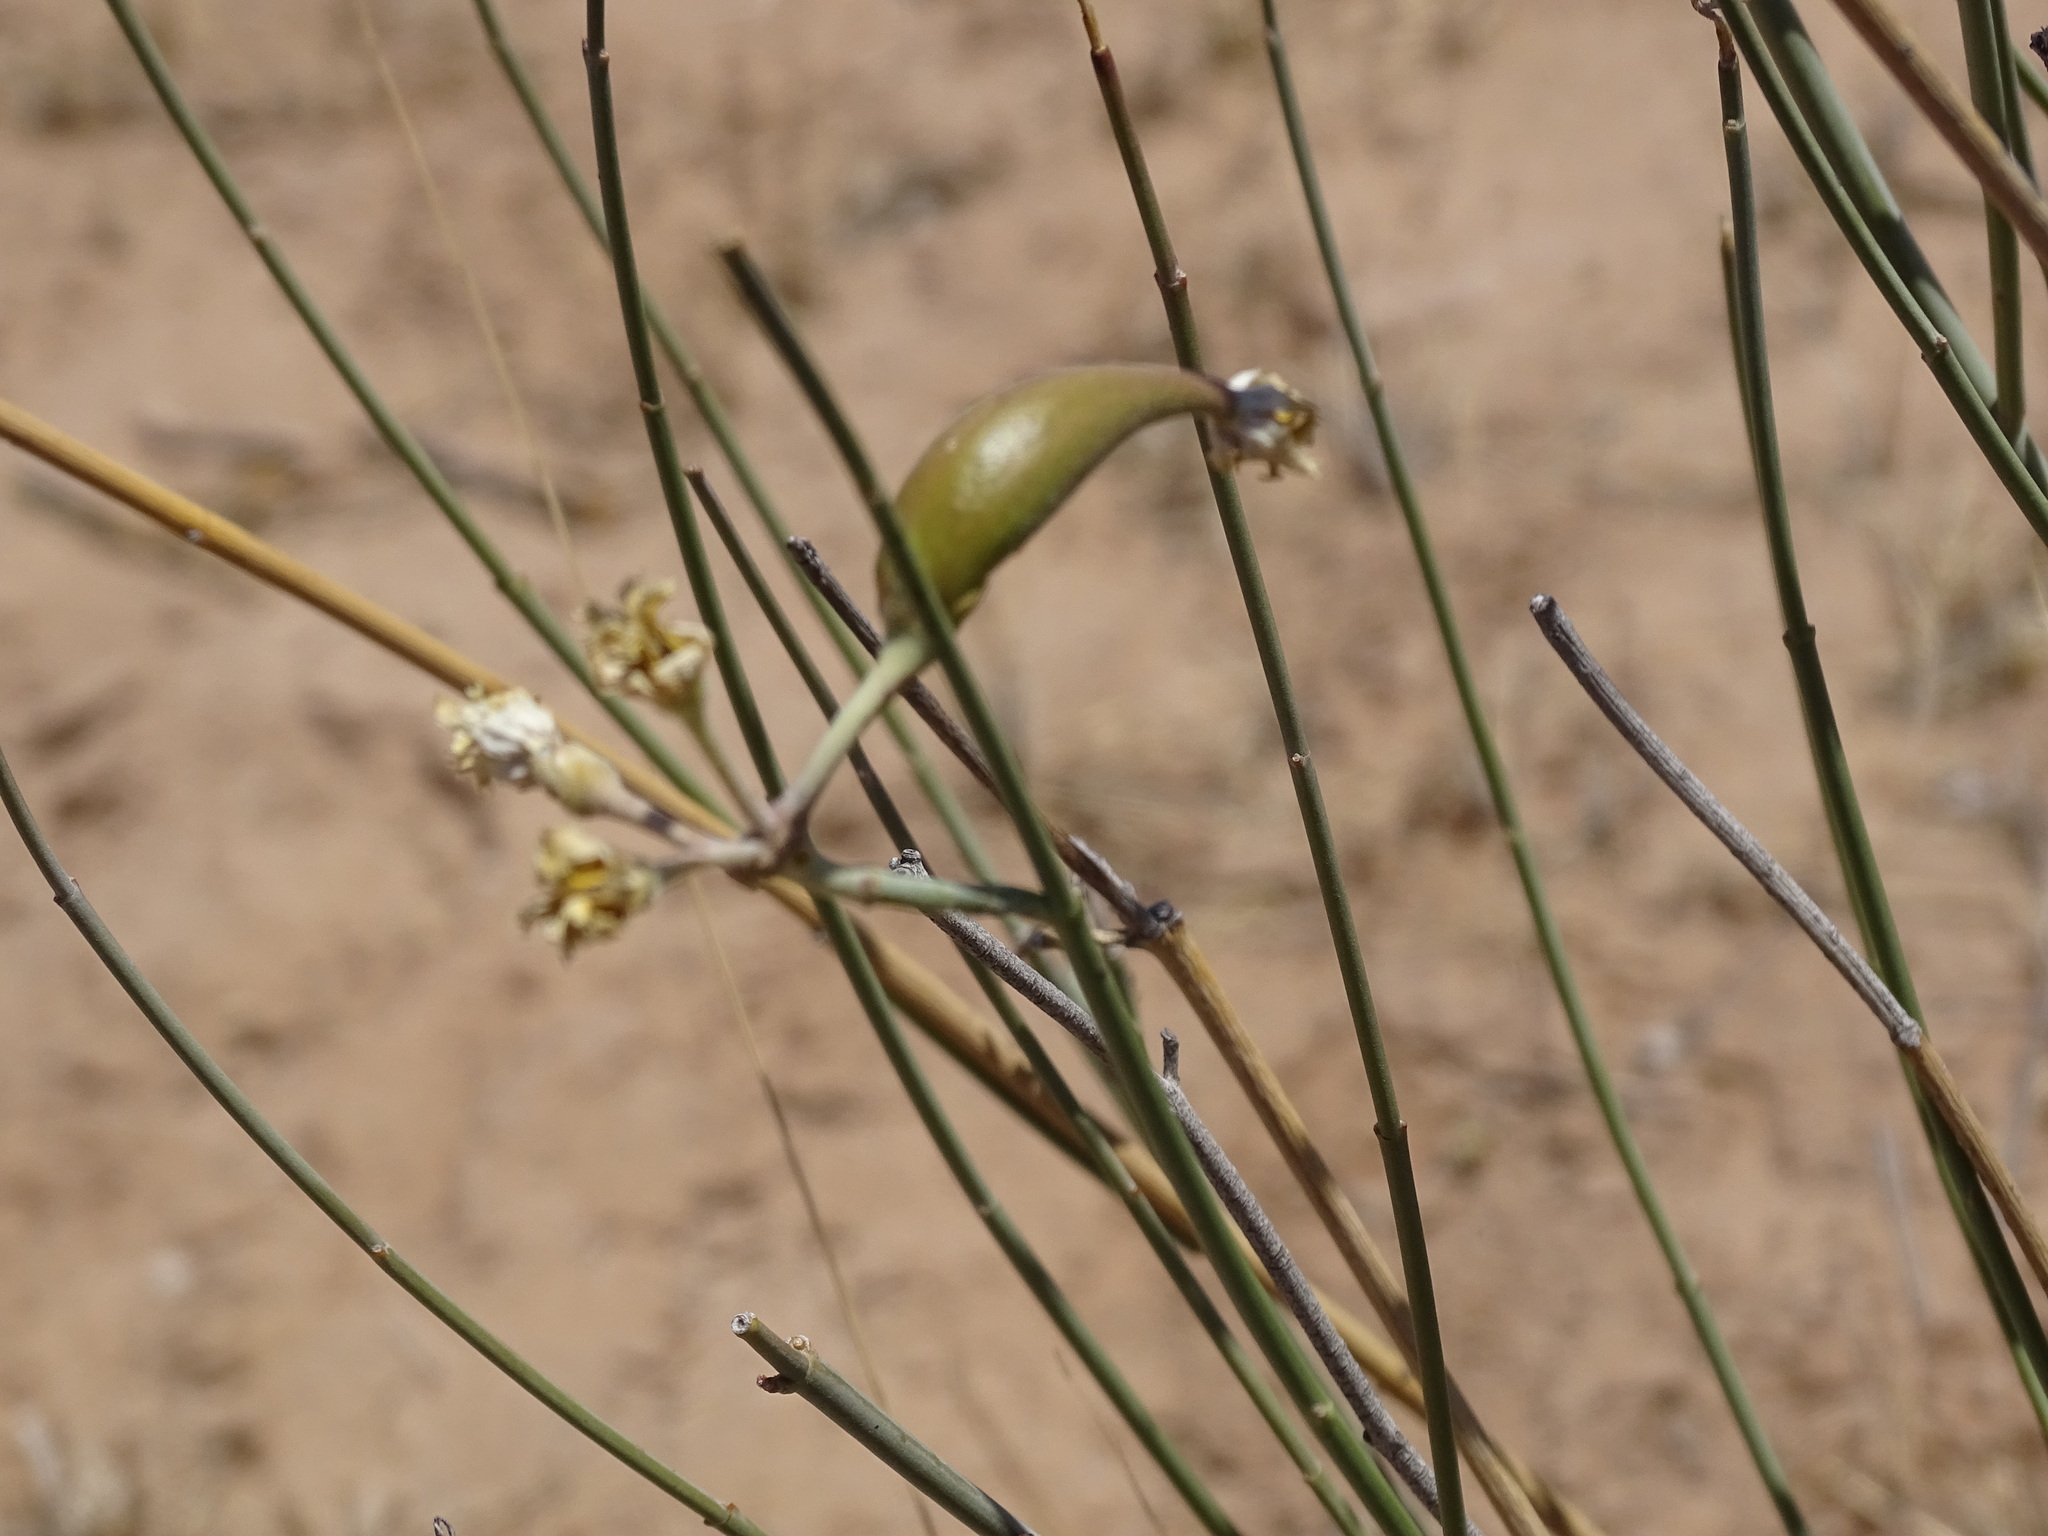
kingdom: Plantae
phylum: Tracheophyta
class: Magnoliopsida
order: Gentianales
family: Apocynaceae
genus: Asclepias
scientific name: Asclepias subulata
